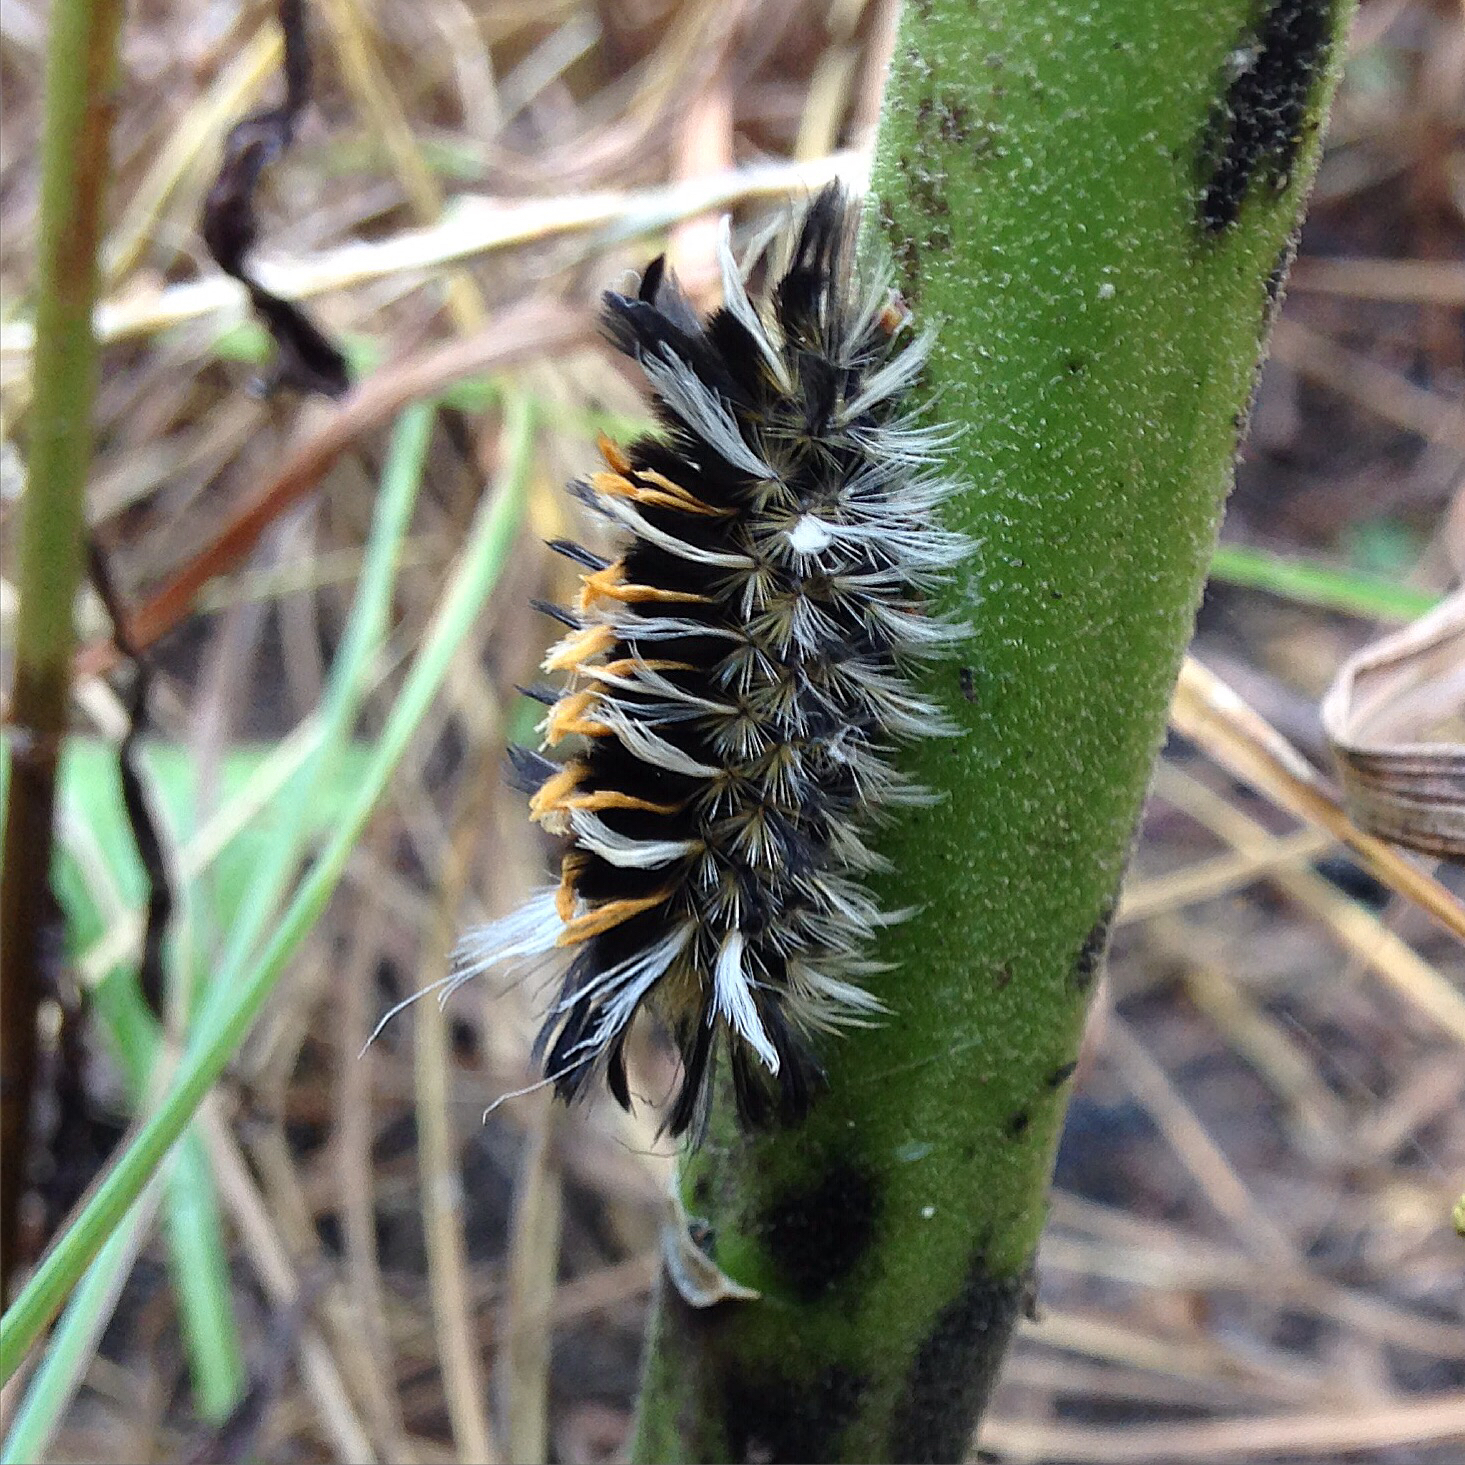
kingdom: Animalia
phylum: Arthropoda
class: Insecta
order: Lepidoptera
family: Erebidae
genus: Euchaetes
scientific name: Euchaetes egle
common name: Milkweed tussock moth
